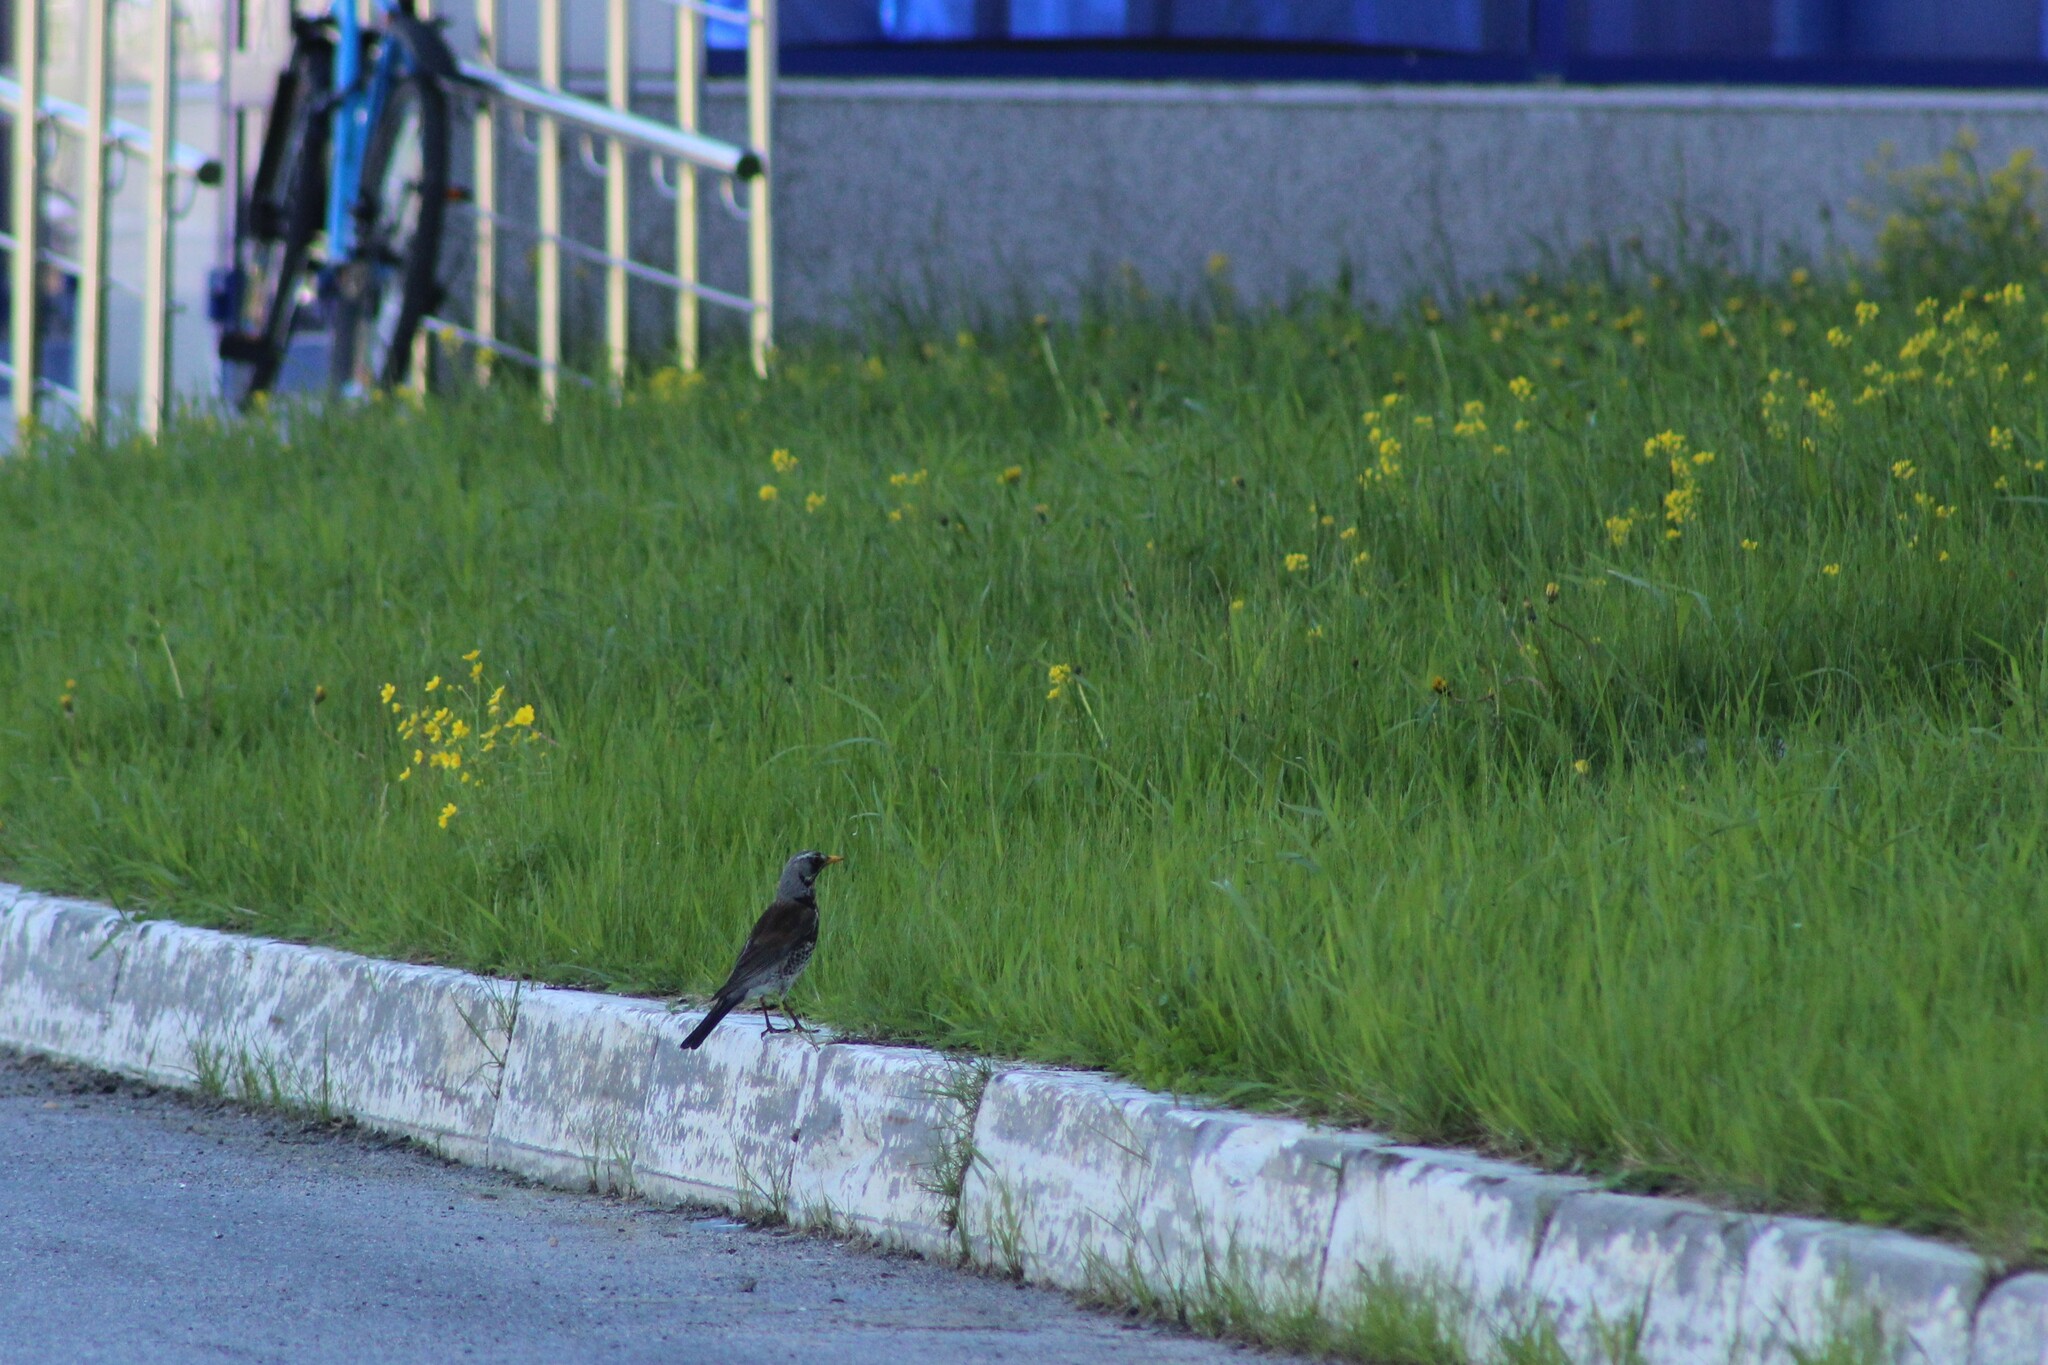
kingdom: Animalia
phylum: Chordata
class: Aves
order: Passeriformes
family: Turdidae
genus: Turdus
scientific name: Turdus pilaris
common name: Fieldfare
